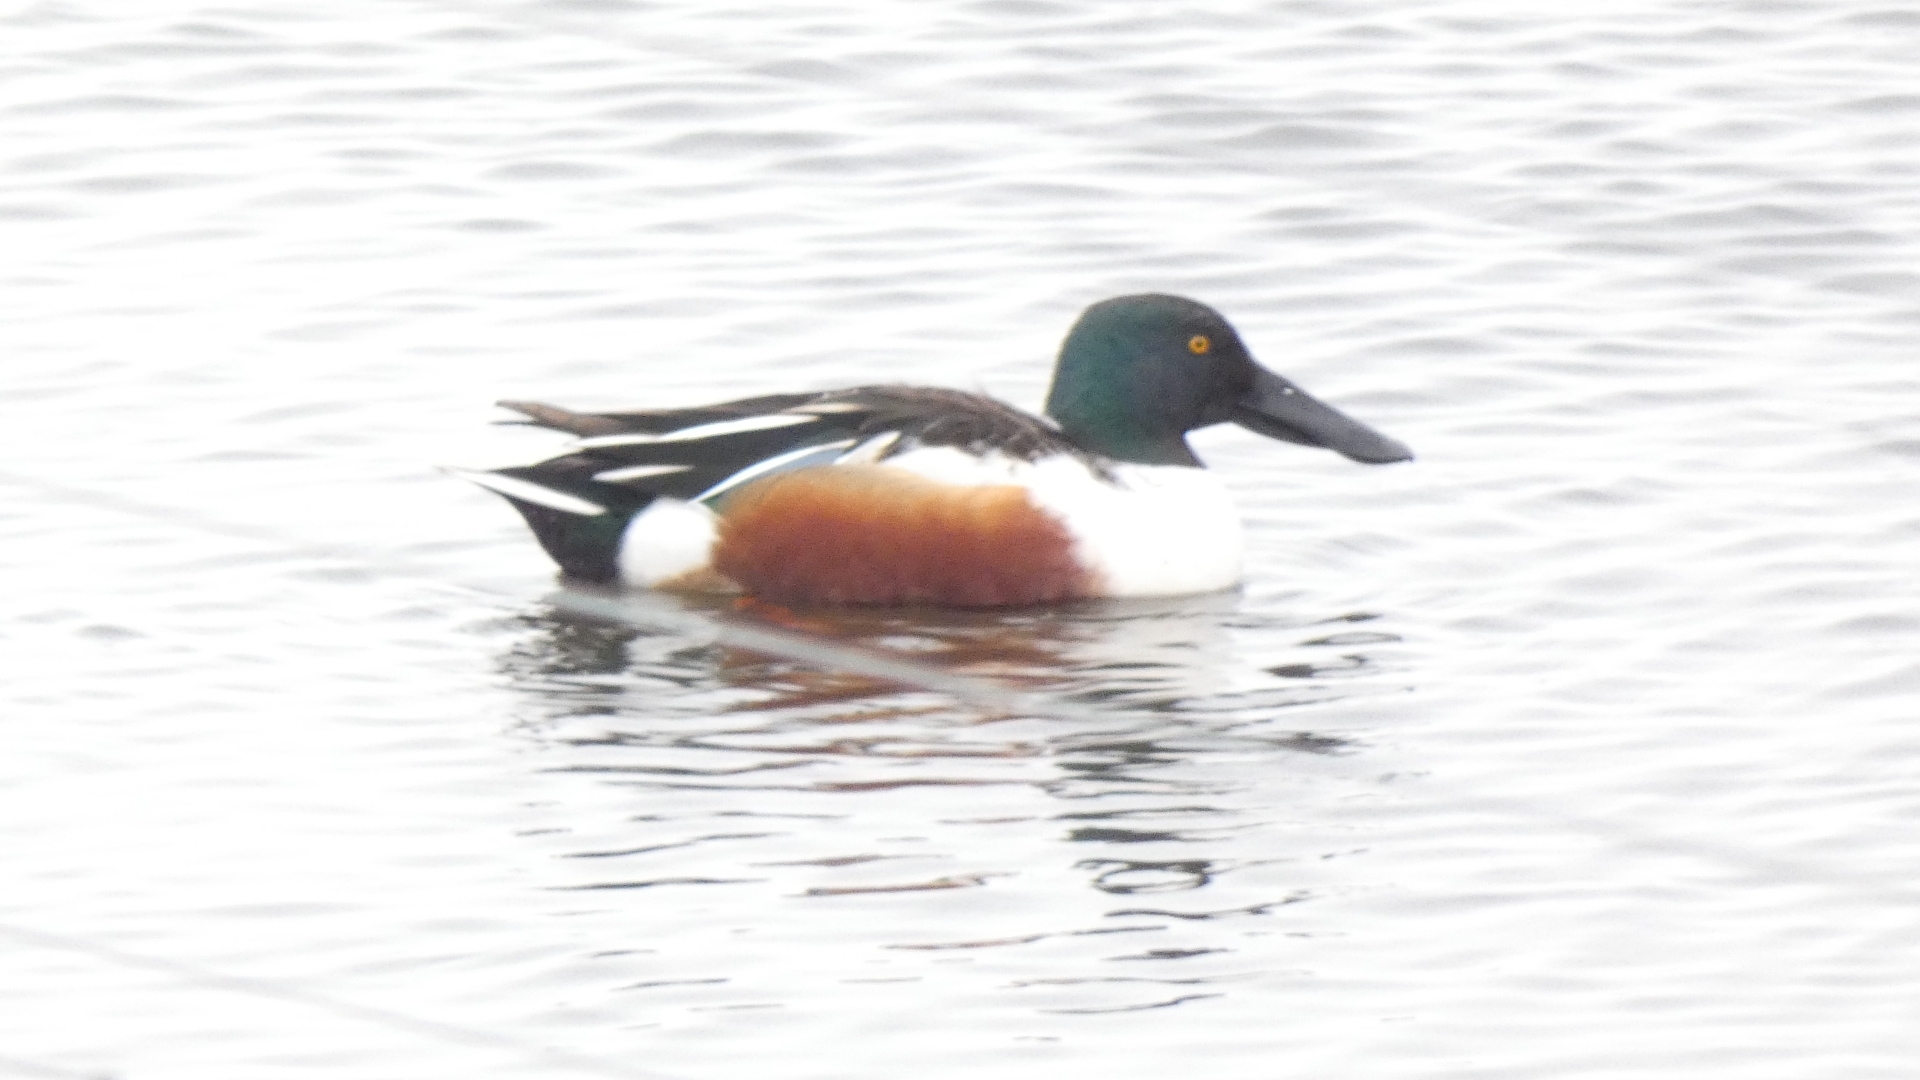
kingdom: Animalia
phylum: Chordata
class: Aves
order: Anseriformes
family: Anatidae
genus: Spatula
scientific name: Spatula clypeata
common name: Northern shoveler
